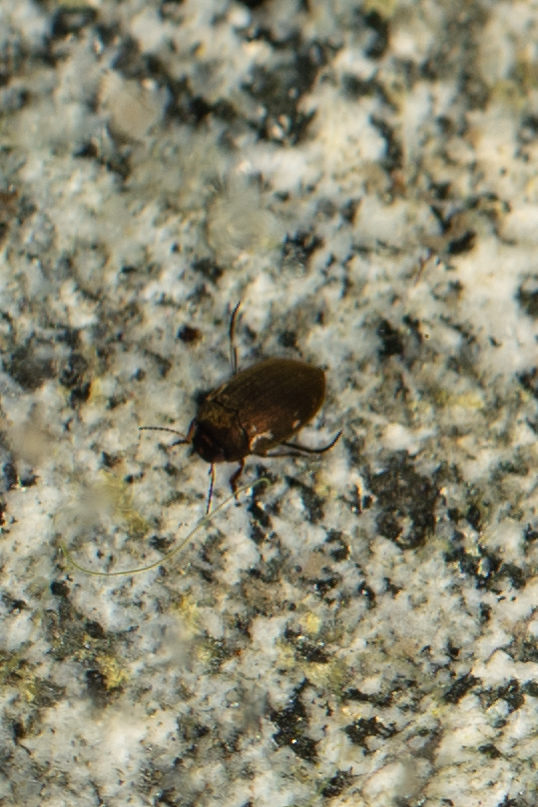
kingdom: Animalia
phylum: Arthropoda
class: Insecta
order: Coleoptera
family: Dytiscidae
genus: Leconectes
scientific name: Leconectes striatellus
